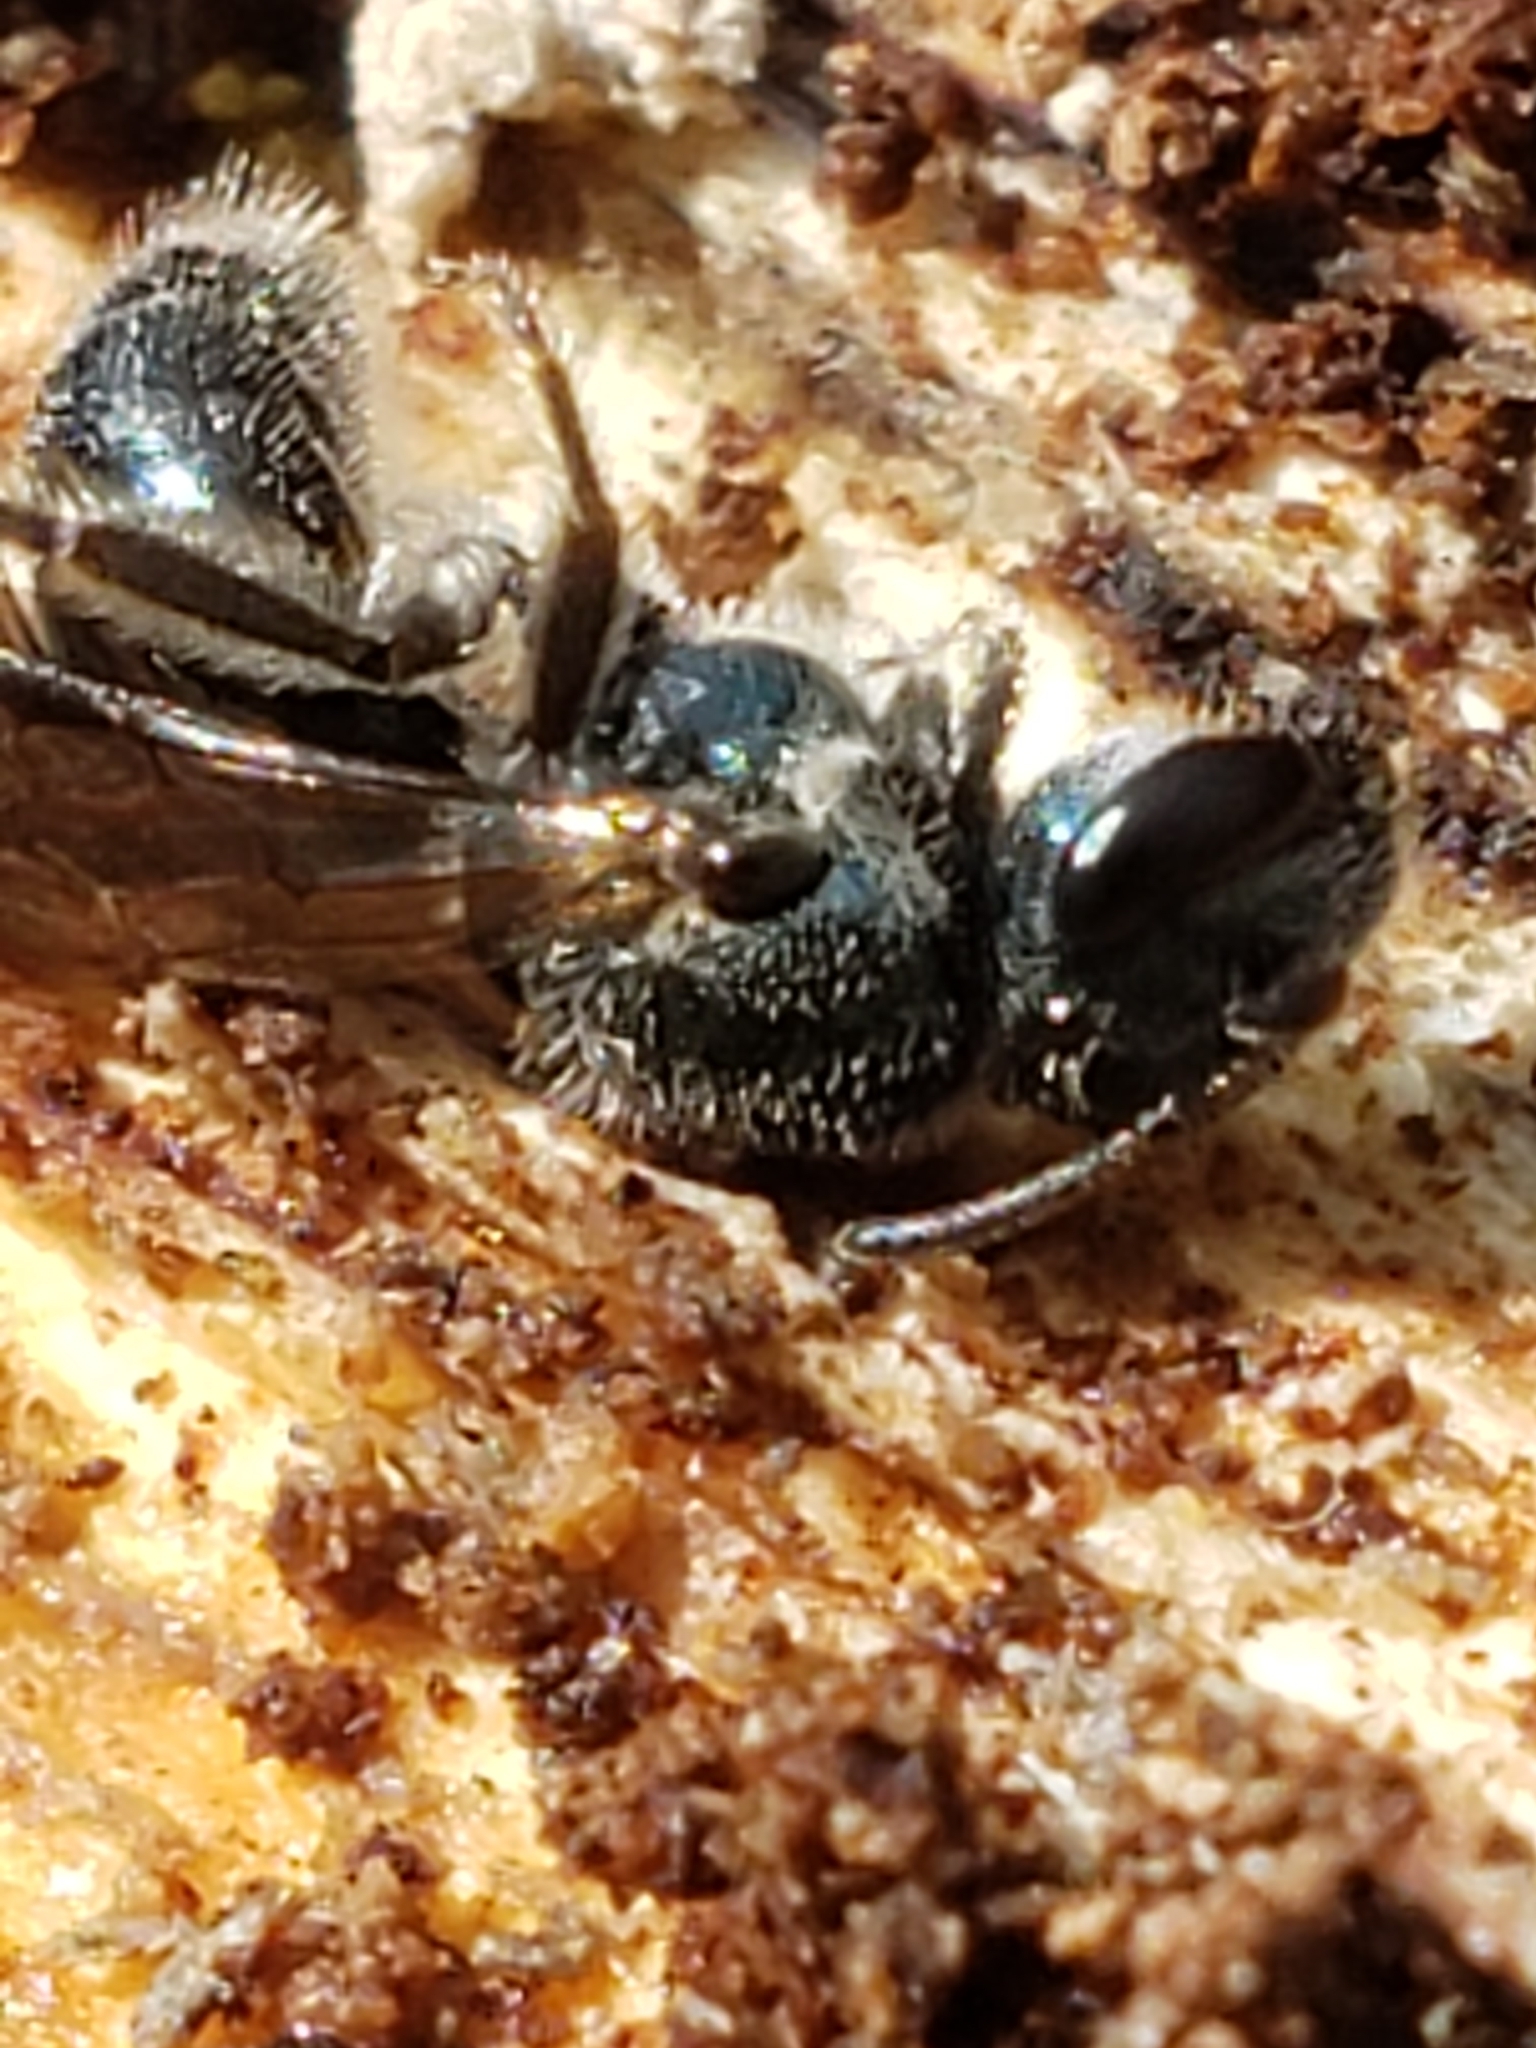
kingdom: Animalia
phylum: Arthropoda
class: Insecta
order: Hymenoptera
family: Halictidae
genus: Lasioglossum
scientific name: Lasioglossum coeruleum
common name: Deep-blue sweat bee
